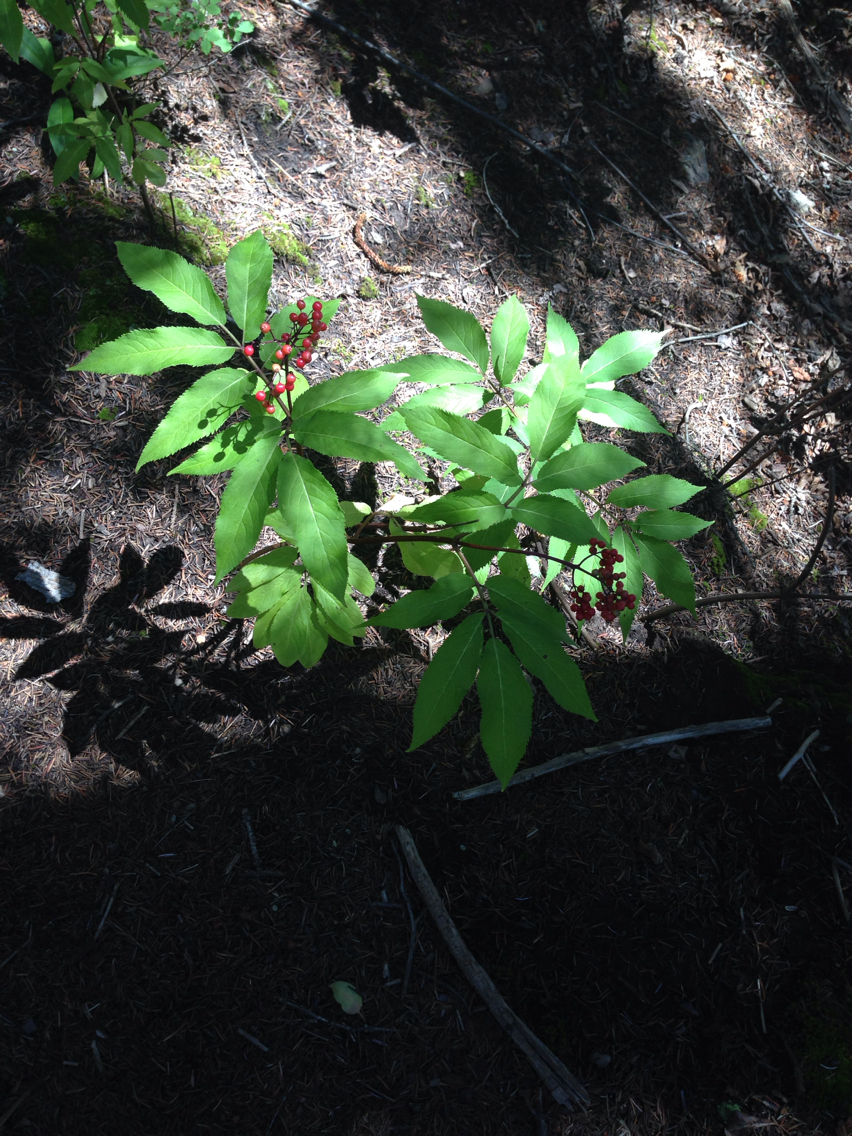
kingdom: Plantae
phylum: Tracheophyta
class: Magnoliopsida
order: Dipsacales
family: Viburnaceae
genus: Sambucus
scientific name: Sambucus racemosa
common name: Red-berried elder
